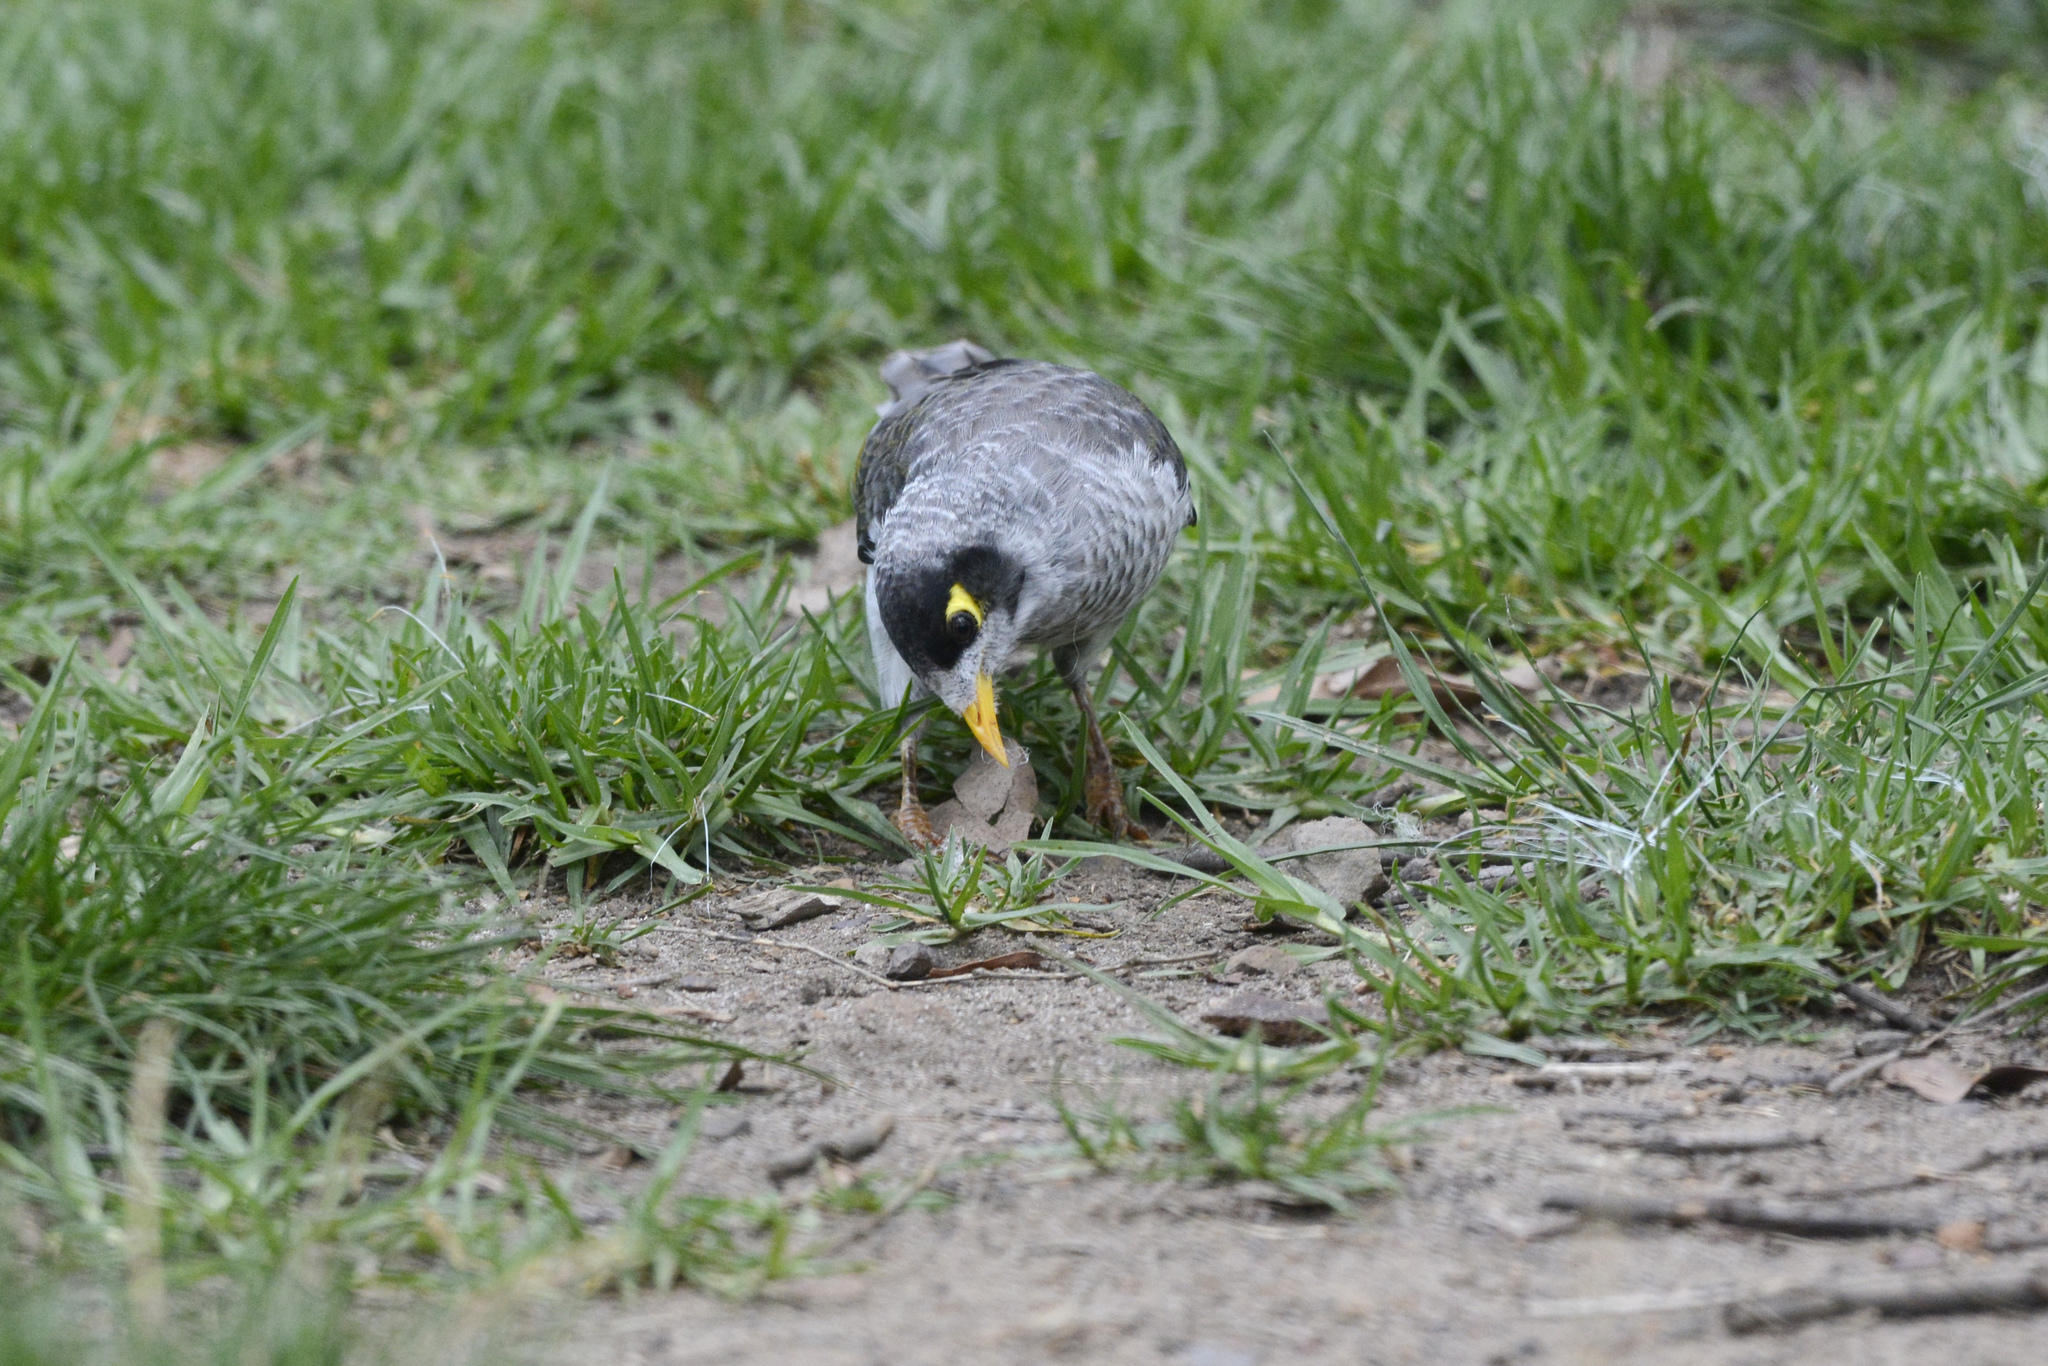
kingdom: Animalia
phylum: Chordata
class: Aves
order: Passeriformes
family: Meliphagidae
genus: Manorina
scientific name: Manorina melanocephala
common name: Noisy miner
